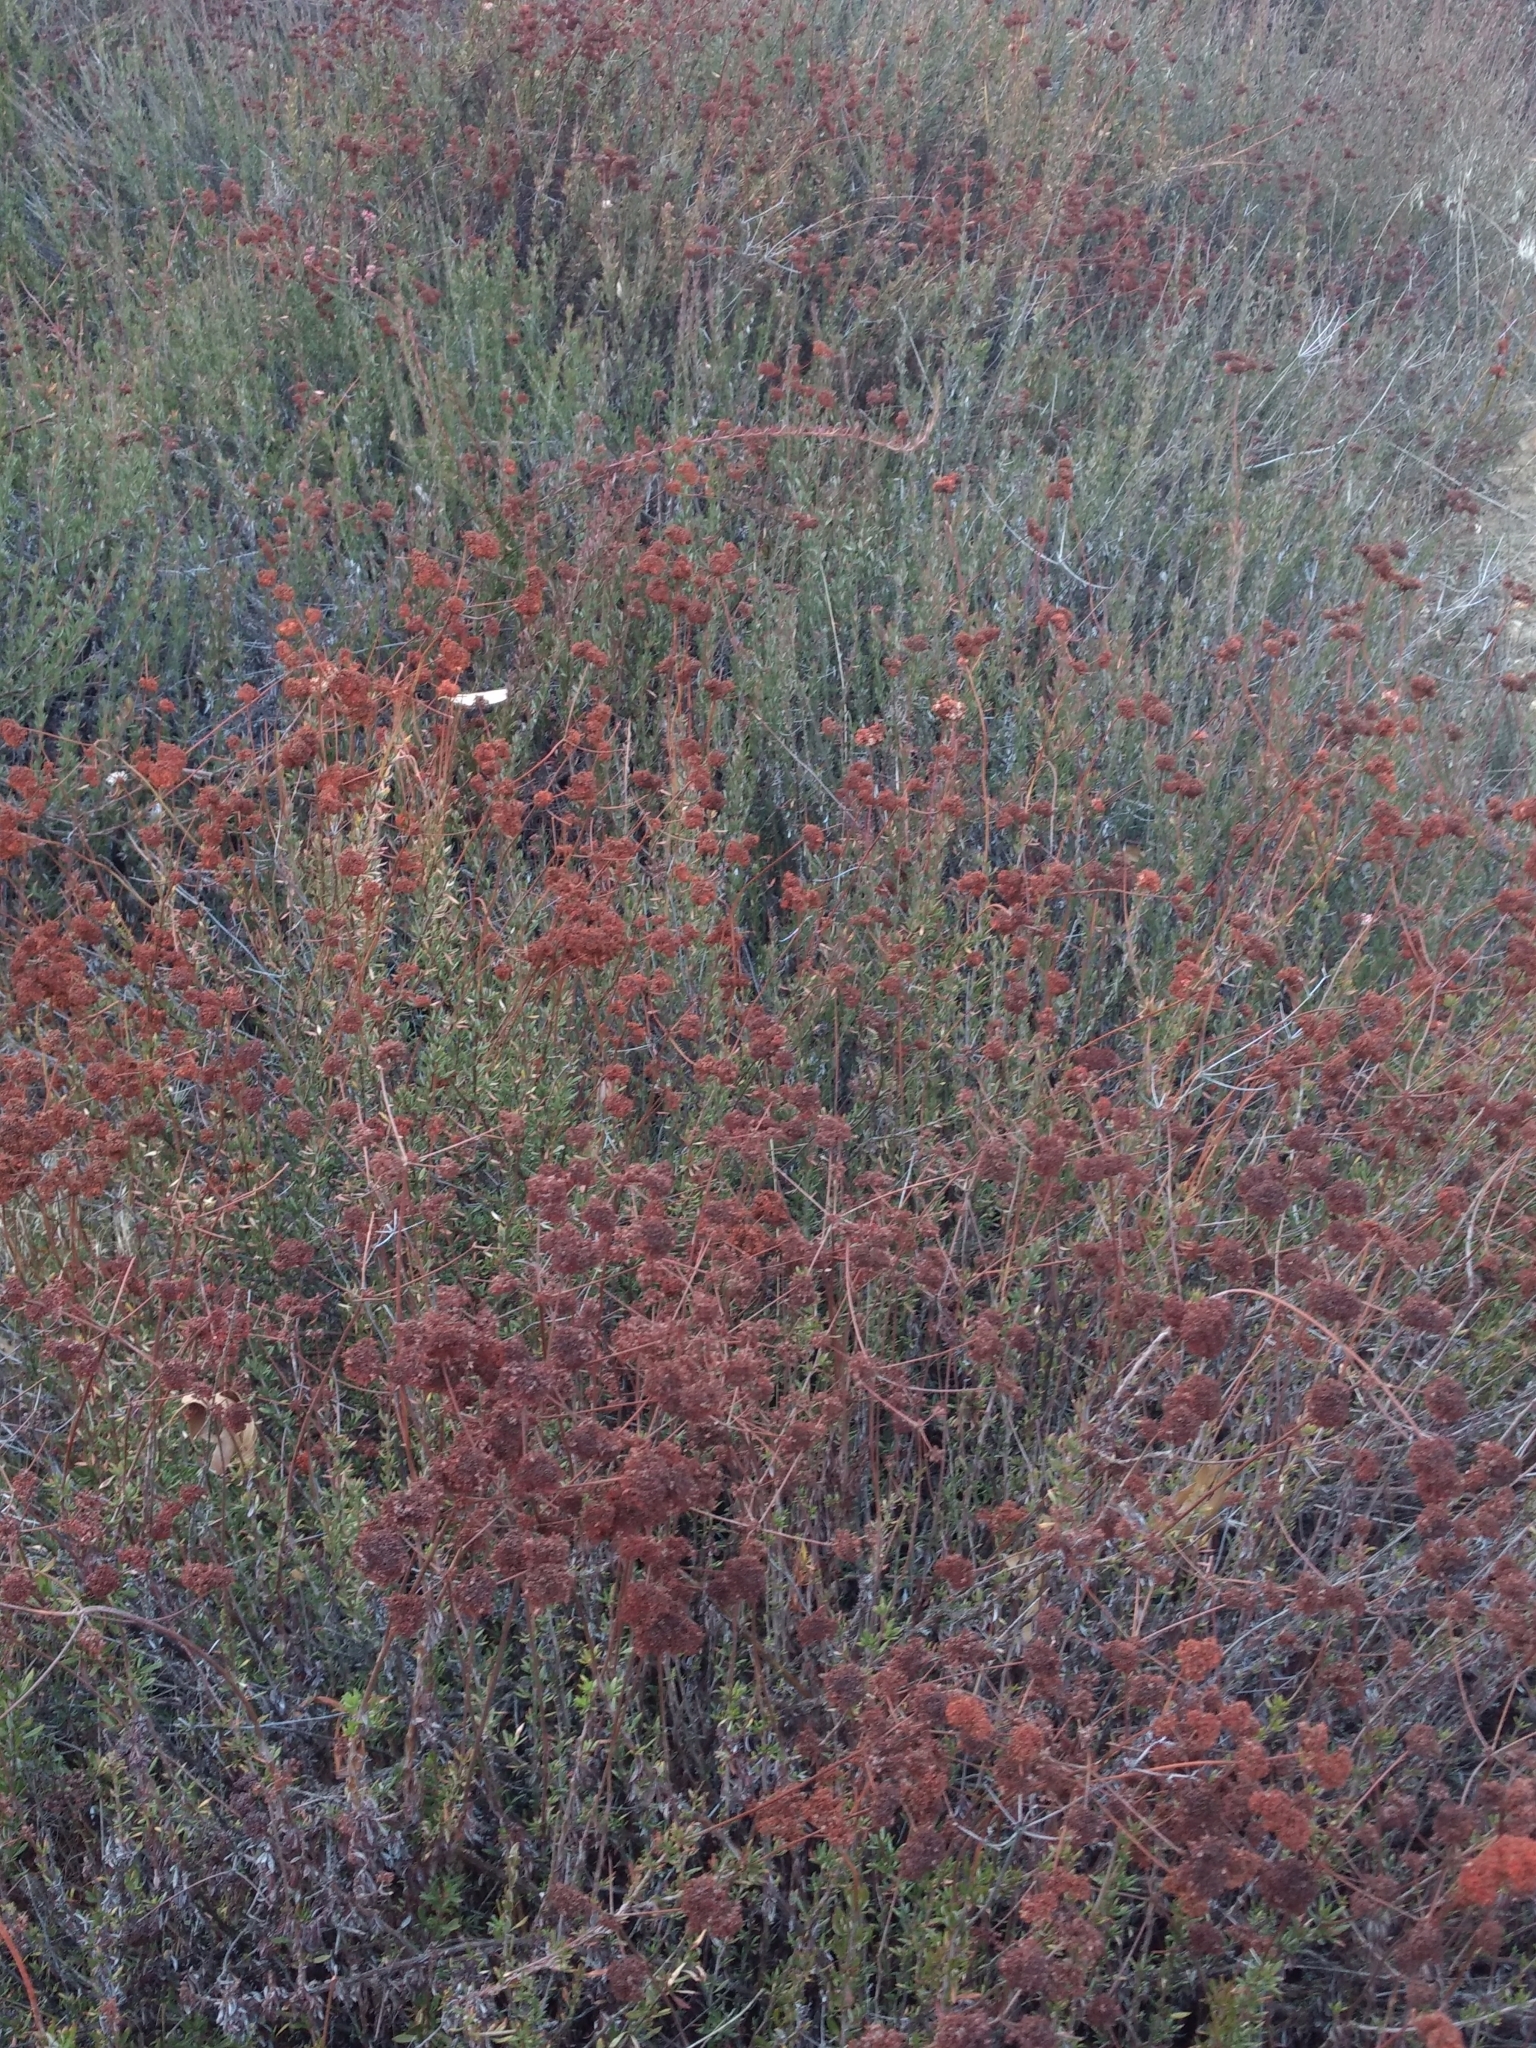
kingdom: Plantae
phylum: Tracheophyta
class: Magnoliopsida
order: Caryophyllales
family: Polygonaceae
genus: Eriogonum
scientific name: Eriogonum fasciculatum
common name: California wild buckwheat
